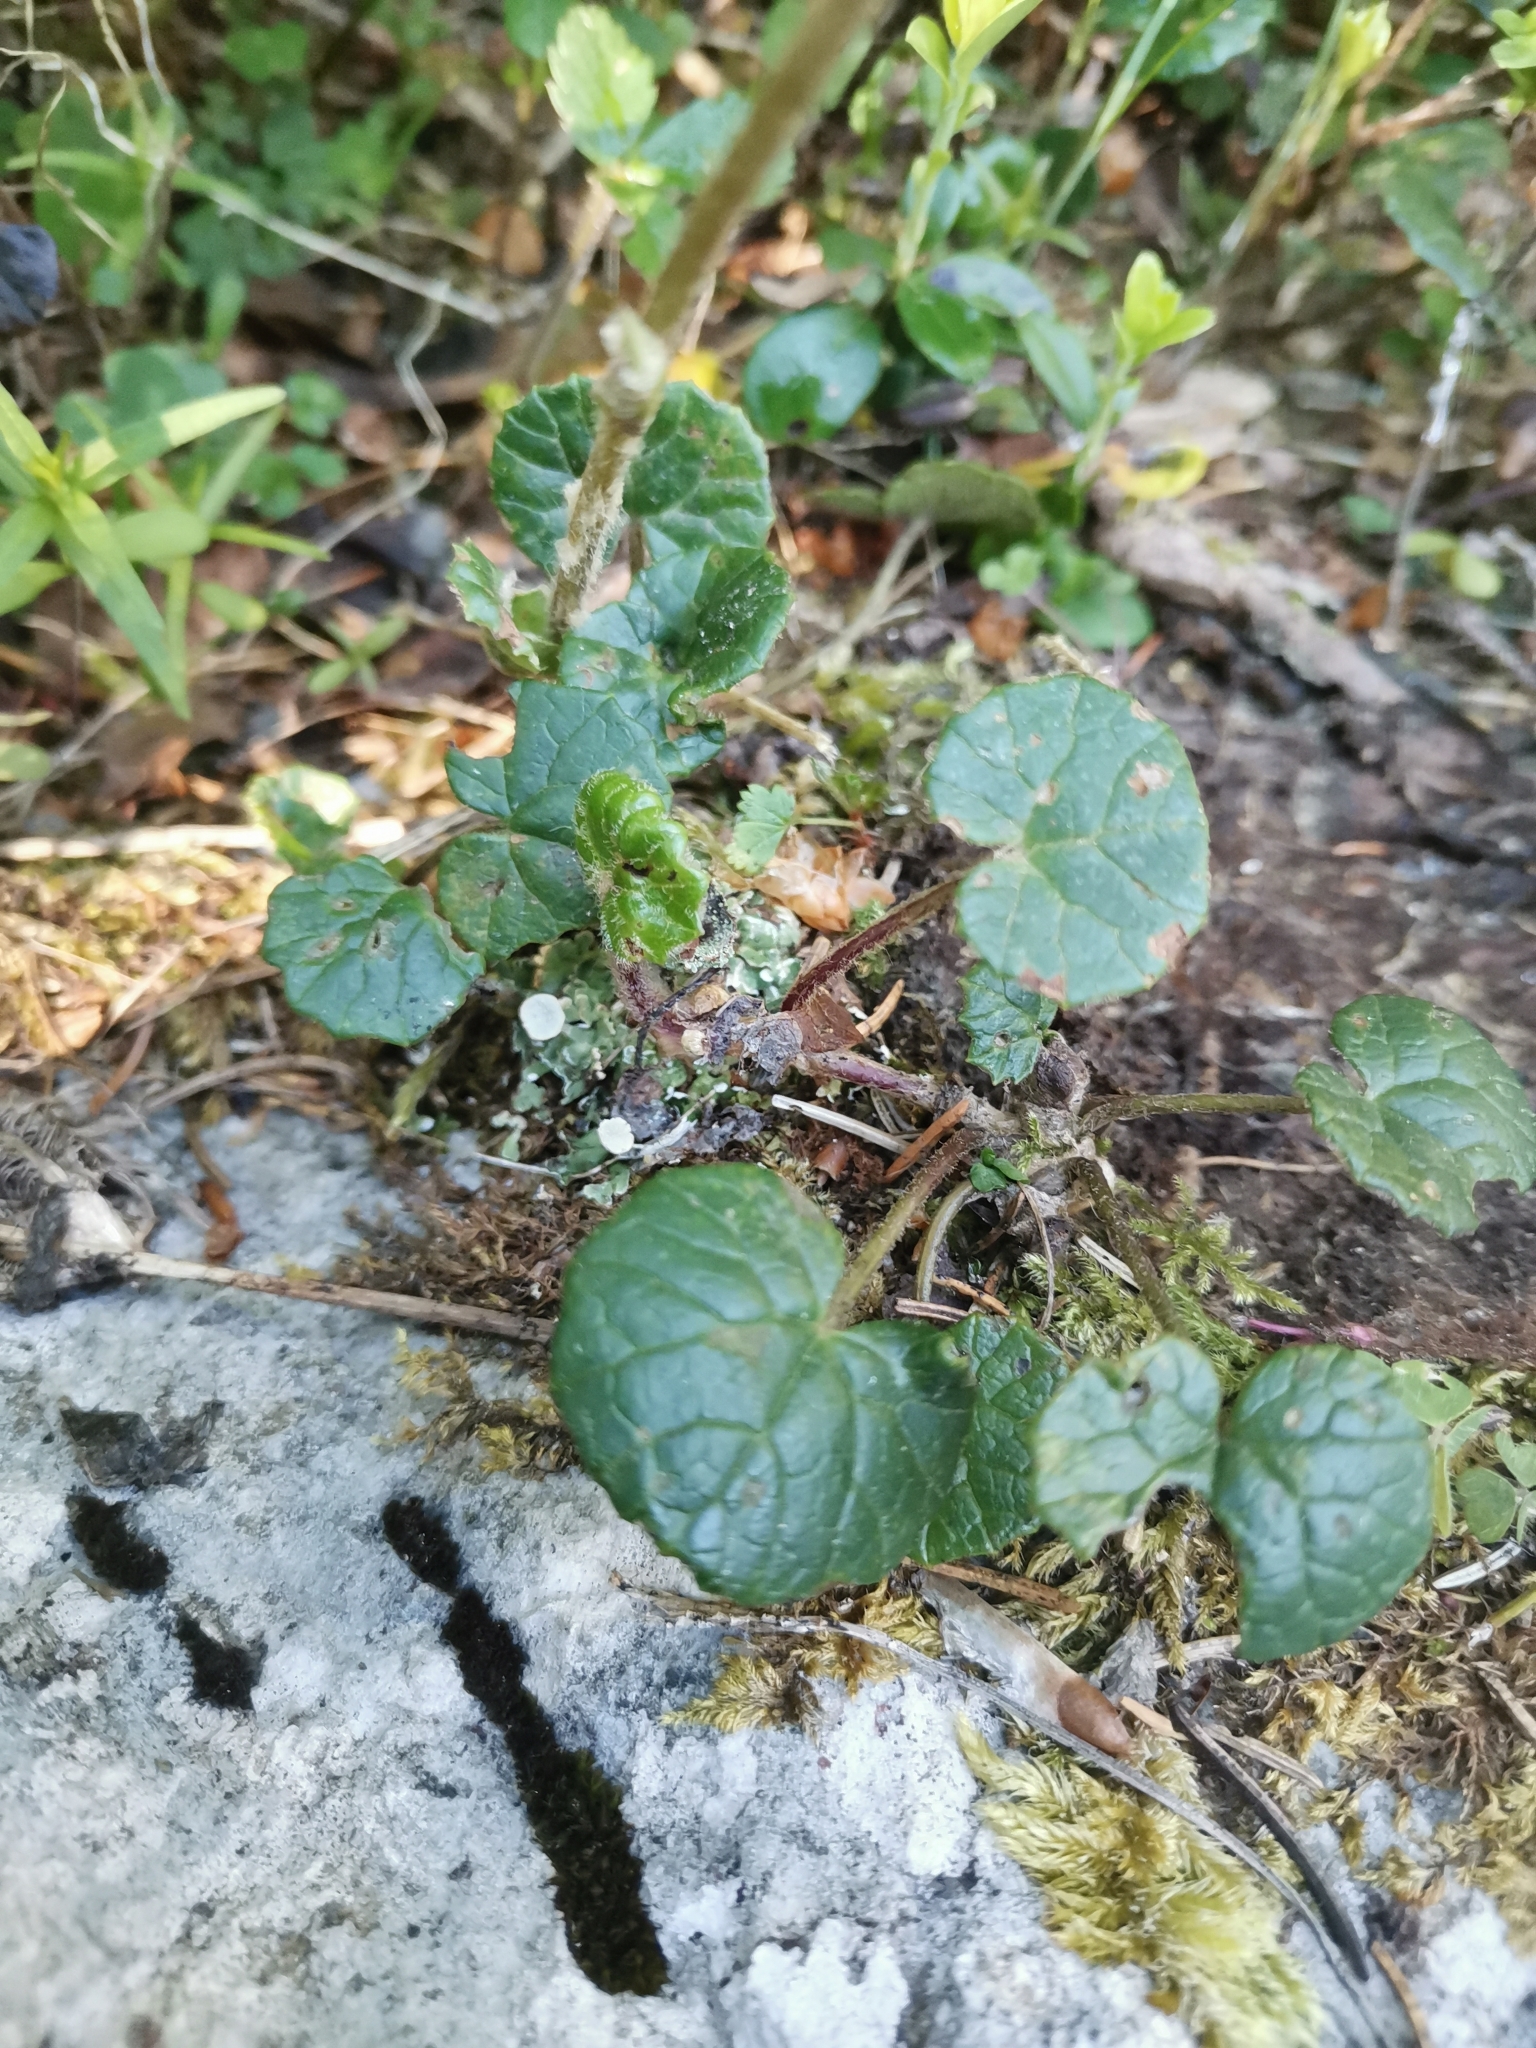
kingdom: Plantae
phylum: Tracheophyta
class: Magnoliopsida
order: Asterales
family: Asteraceae
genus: Homogyne
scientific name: Homogyne alpina
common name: Purple colt's-foot
